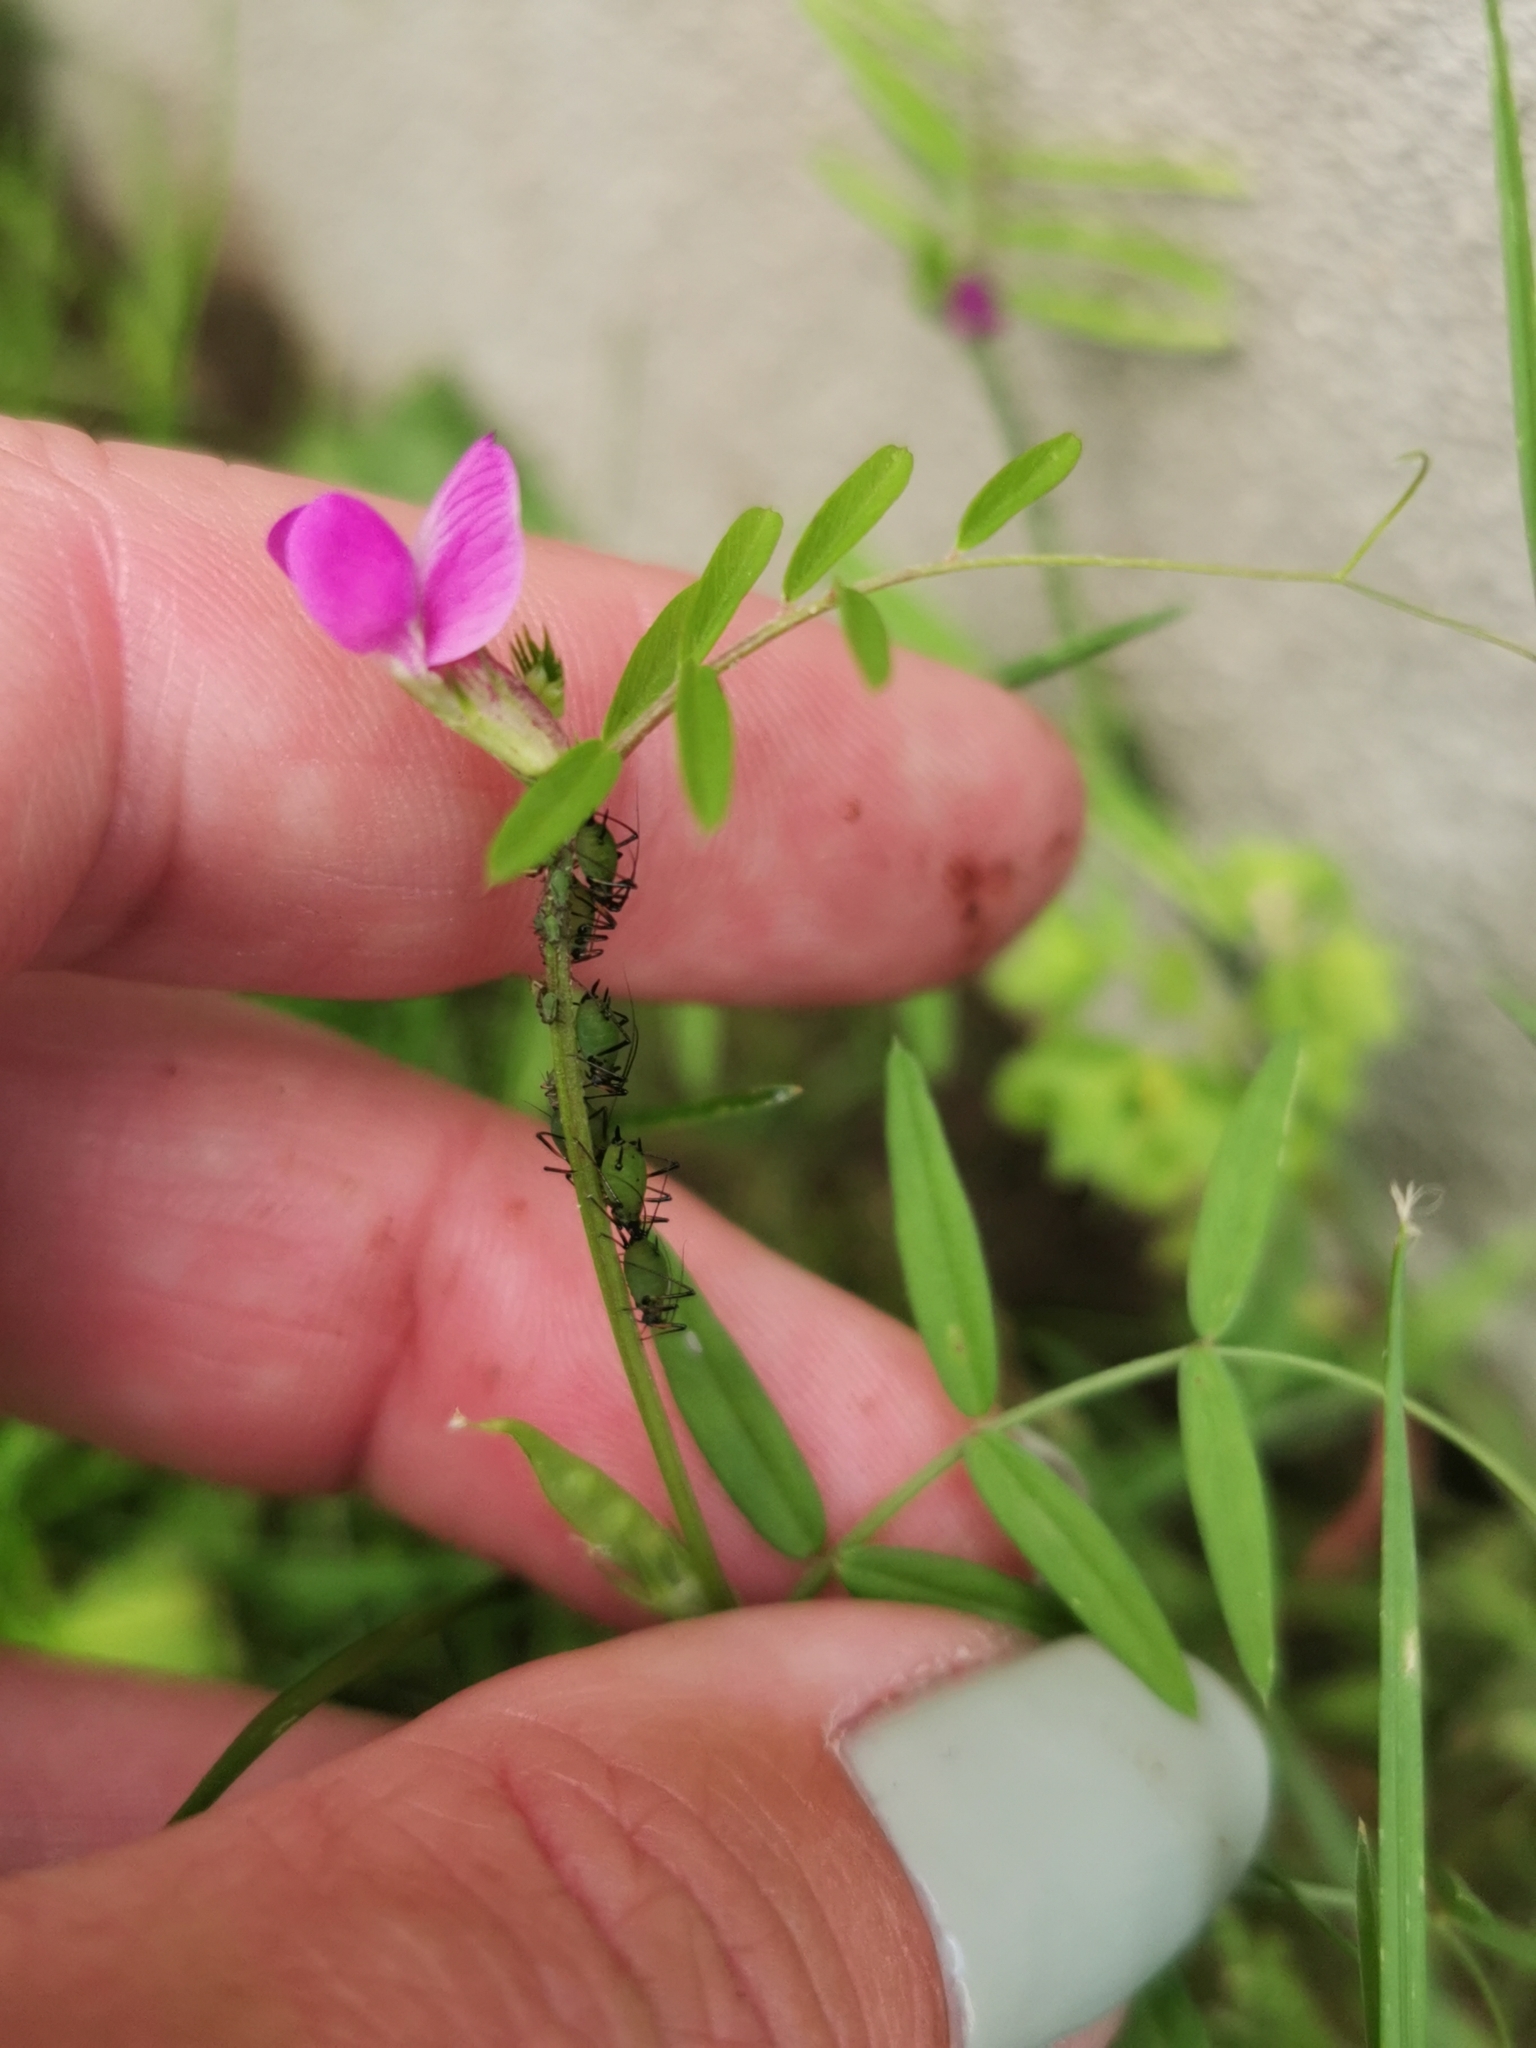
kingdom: Plantae
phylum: Tracheophyta
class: Magnoliopsida
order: Fabales
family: Fabaceae
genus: Vicia
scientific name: Vicia sativa
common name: Garden vetch
